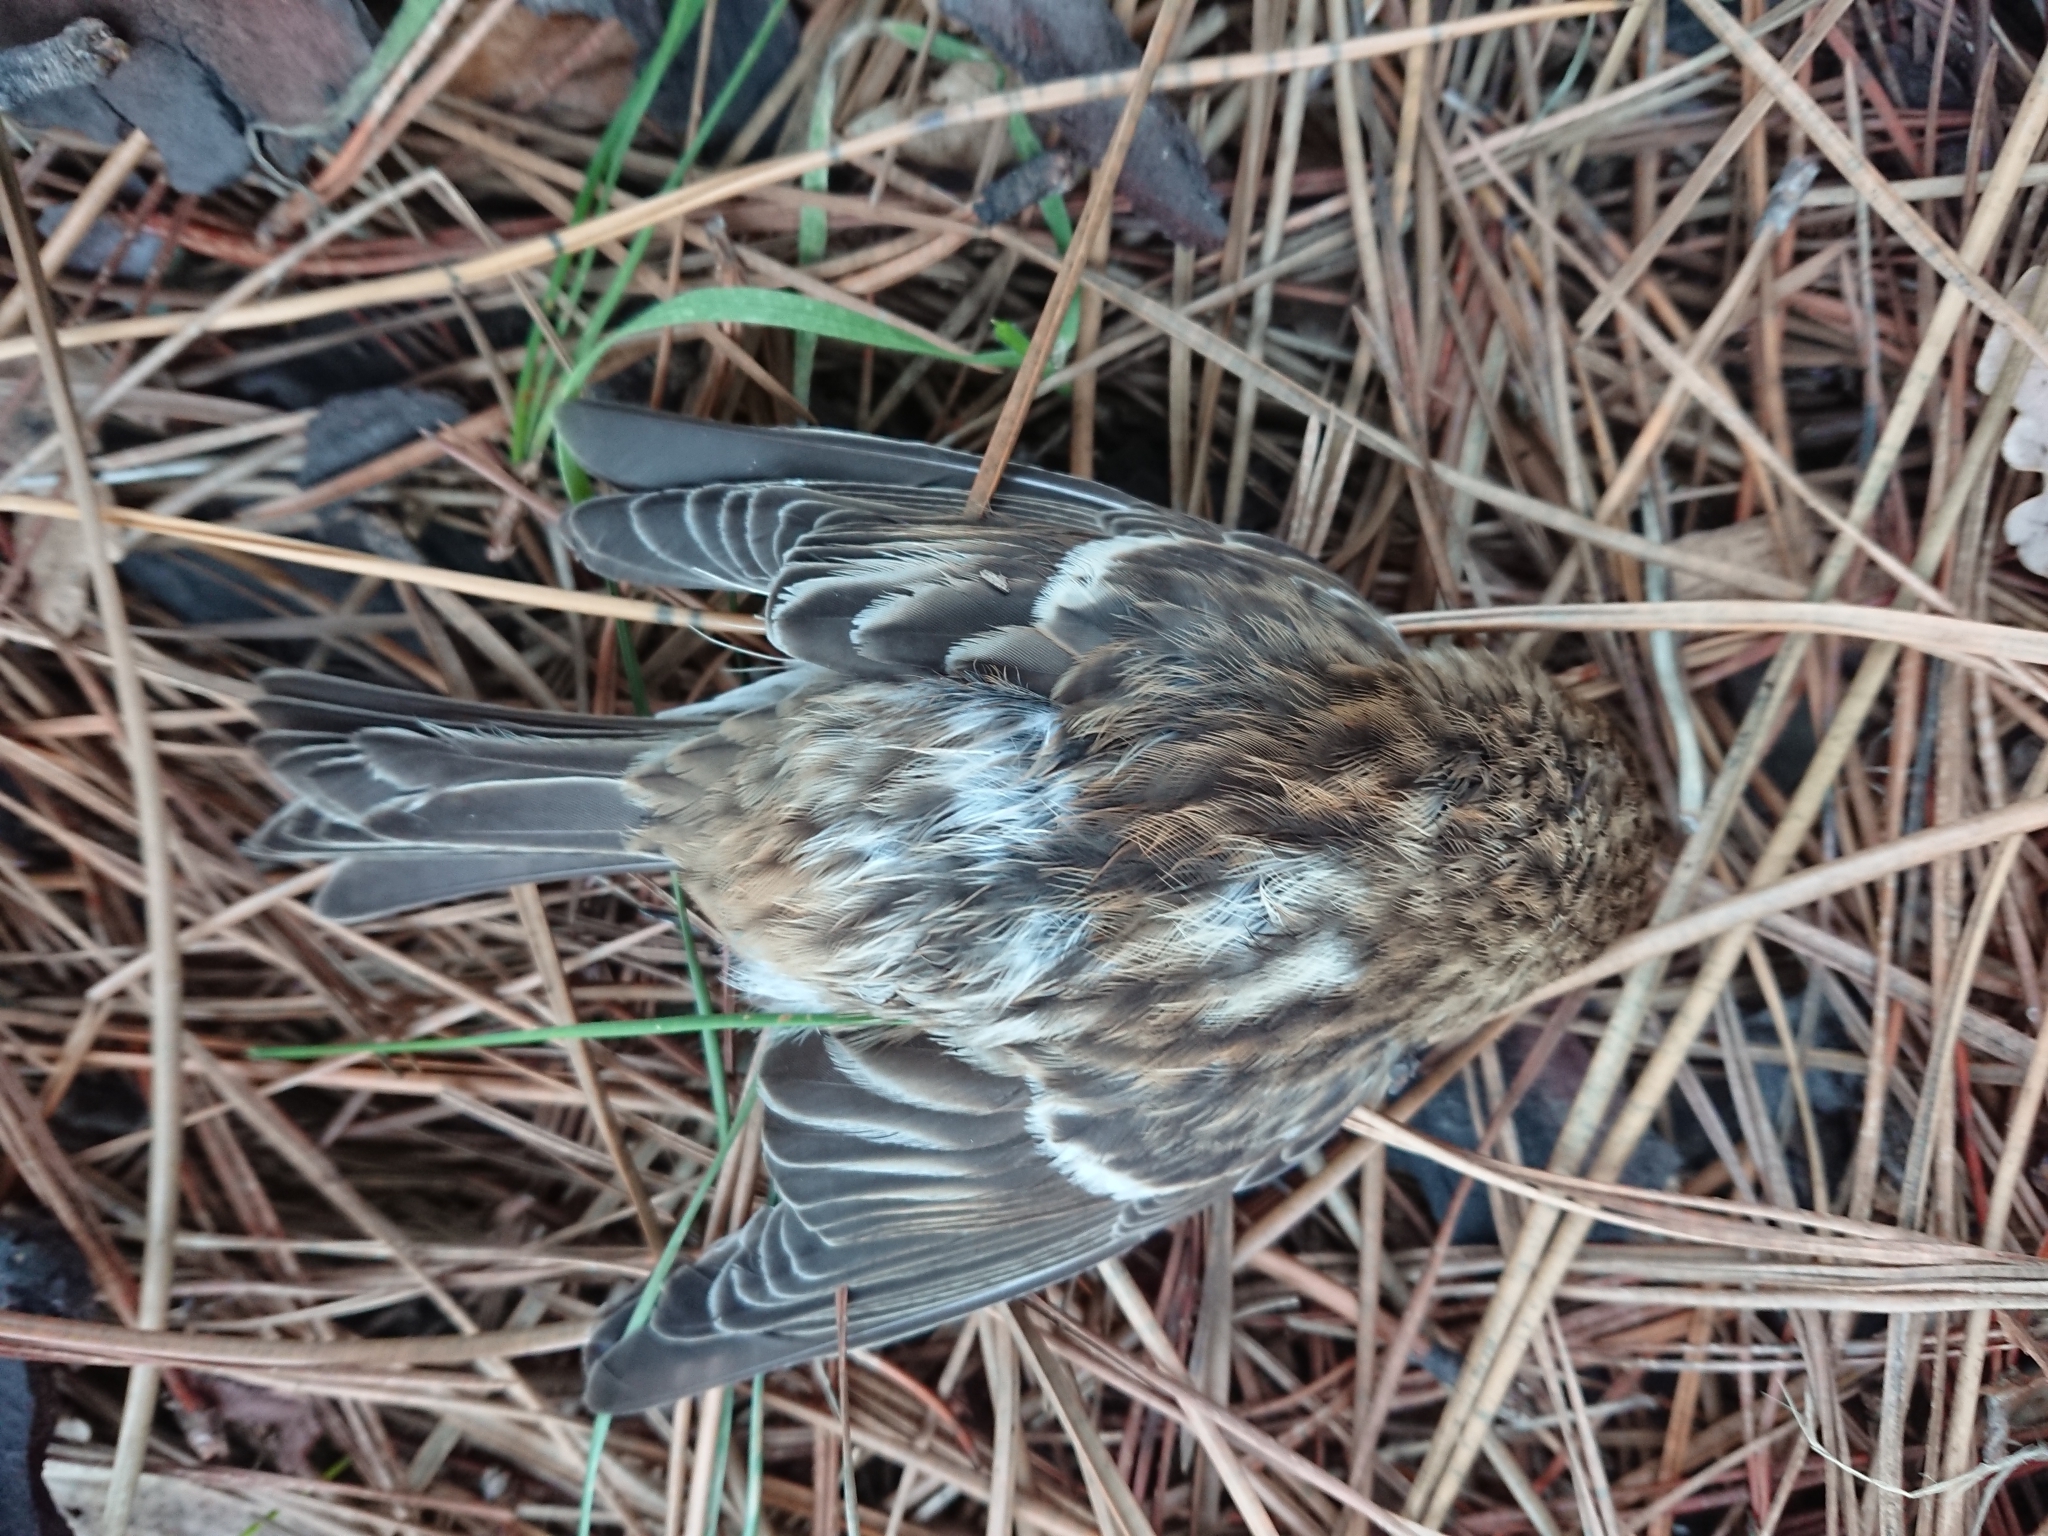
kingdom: Animalia
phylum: Chordata
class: Aves
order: Passeriformes
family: Fringillidae
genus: Acanthis
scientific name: Acanthis flammea
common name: Common redpoll
